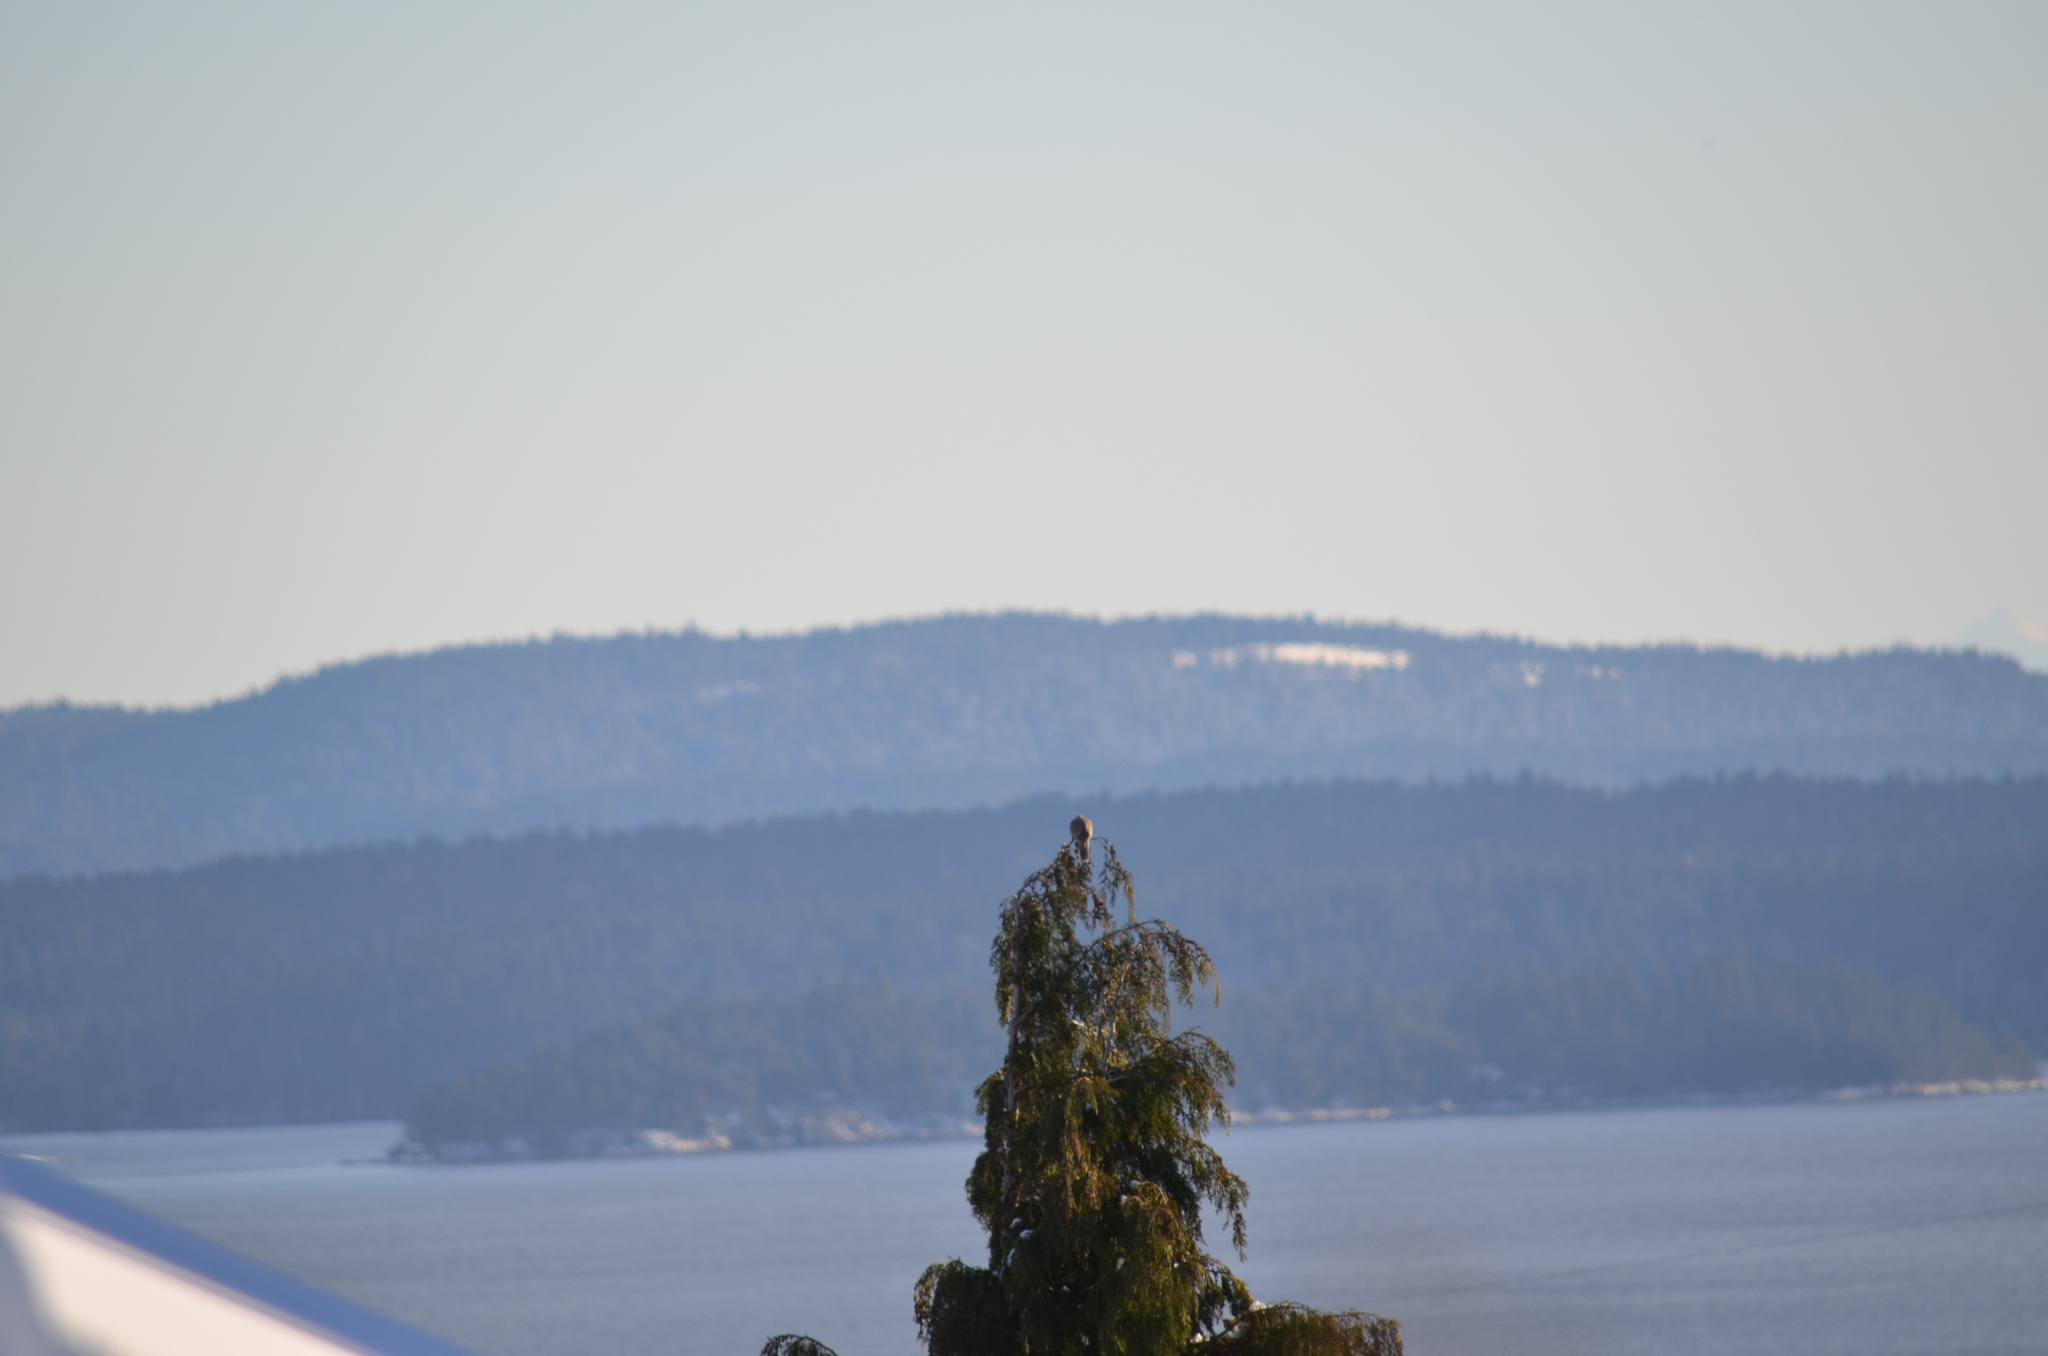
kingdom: Animalia
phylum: Chordata
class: Aves
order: Columbiformes
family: Columbidae
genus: Streptopelia
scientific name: Streptopelia decaocto
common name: Eurasian collared dove
